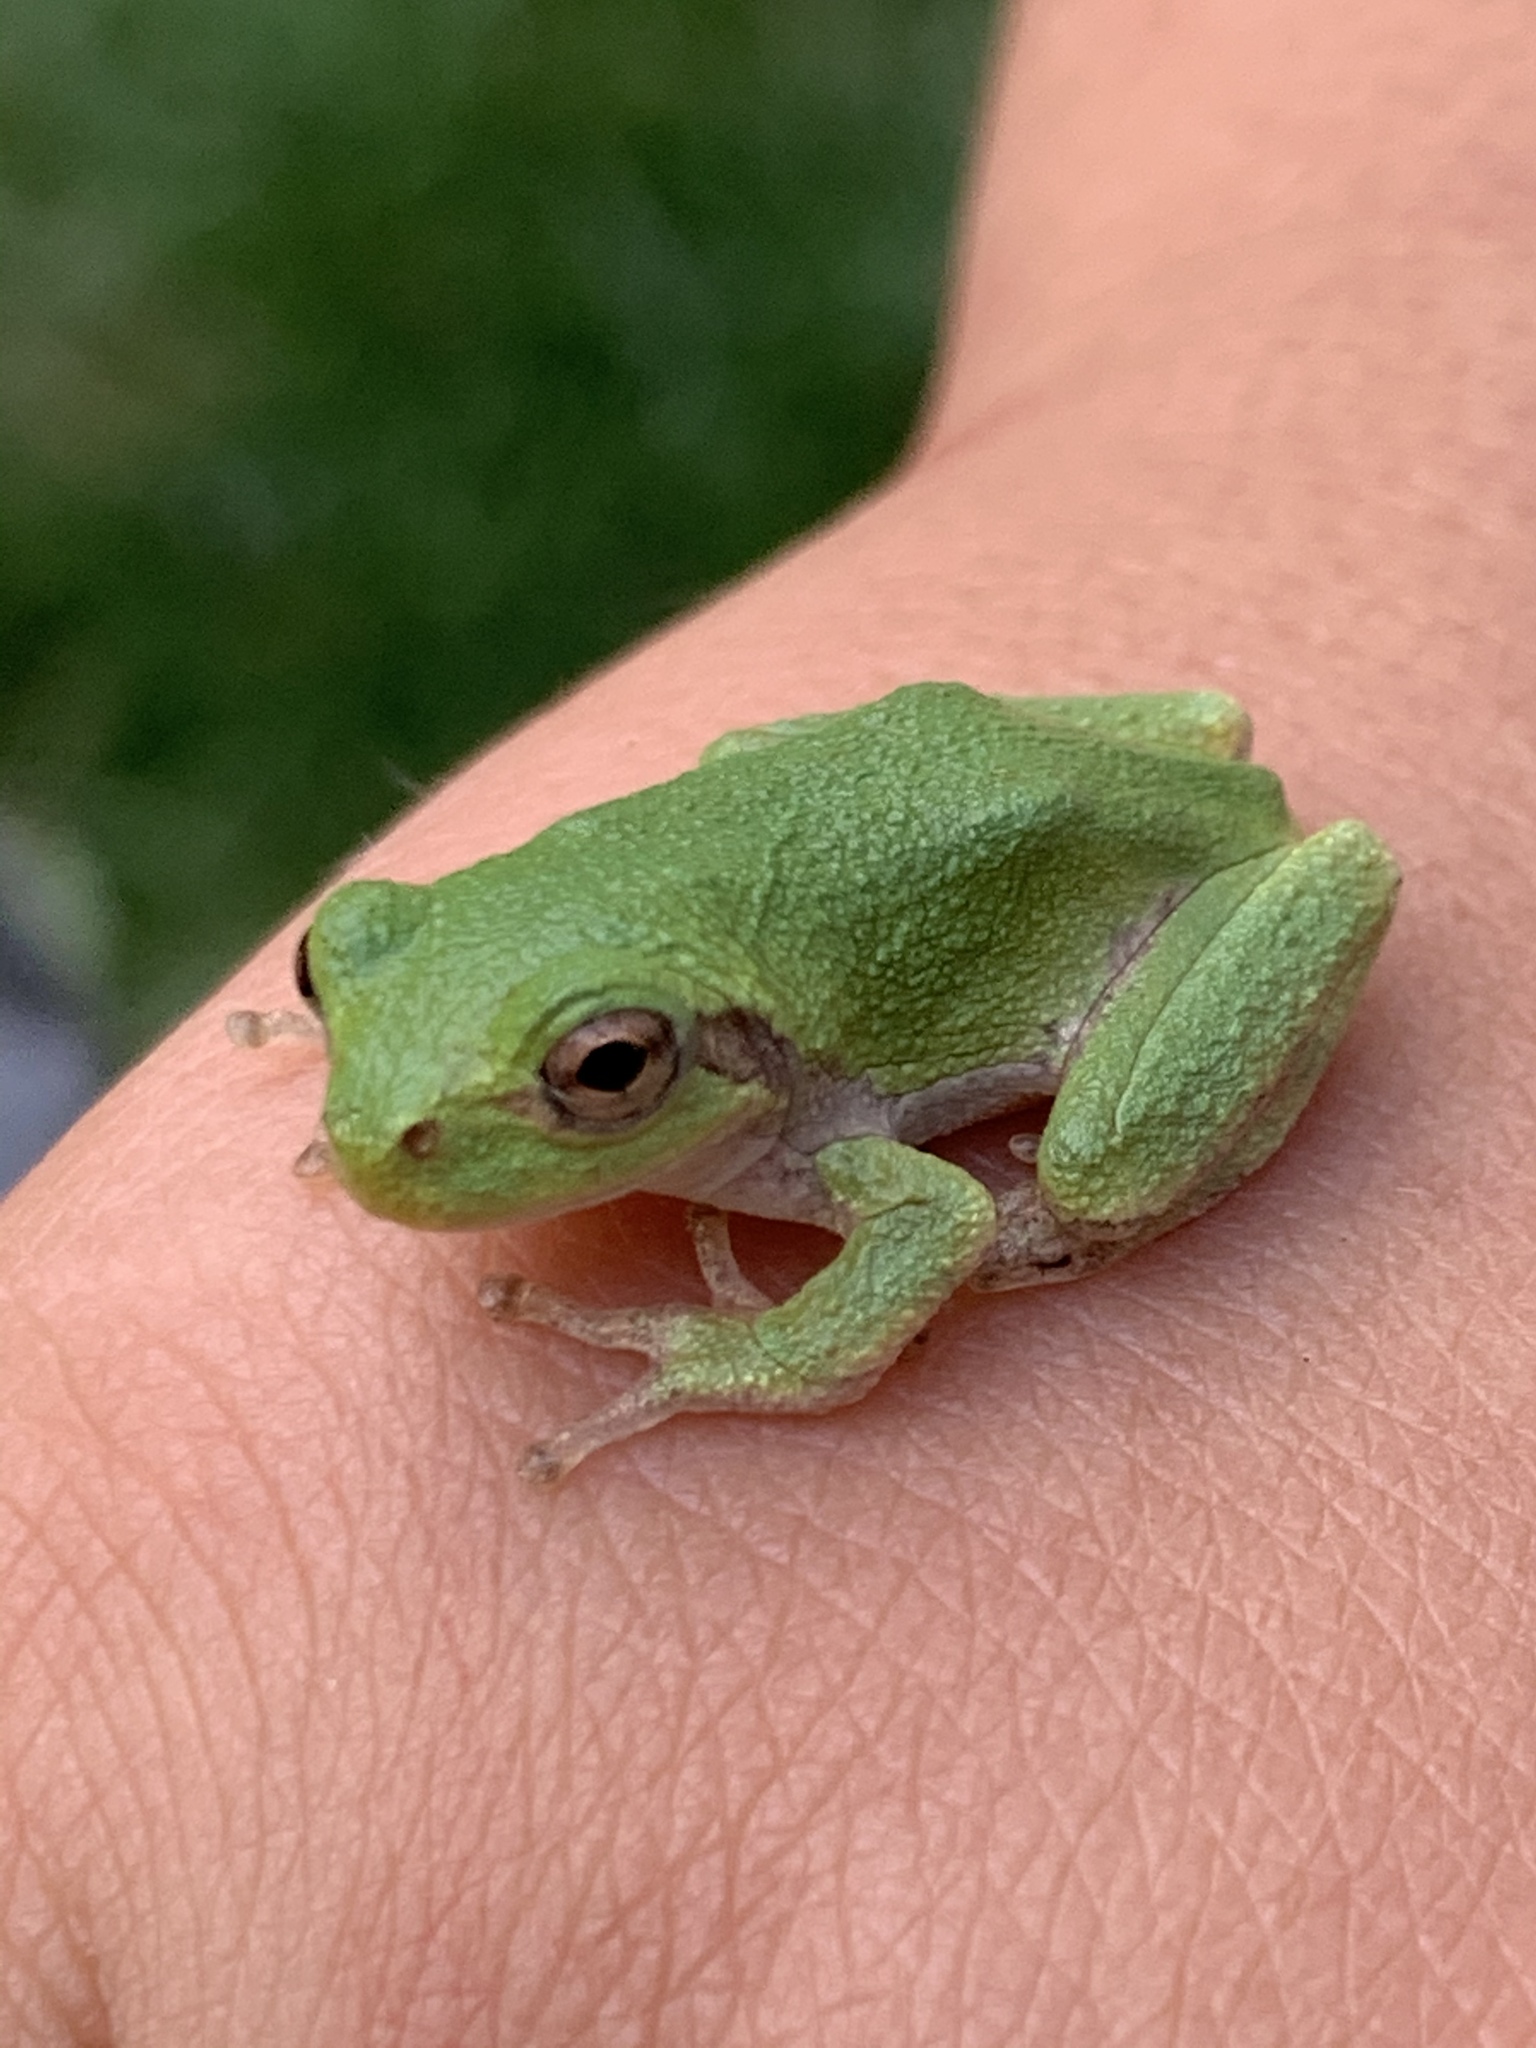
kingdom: Animalia
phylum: Chordata
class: Amphibia
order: Anura
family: Hylidae
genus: Hyla
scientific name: Hyla
